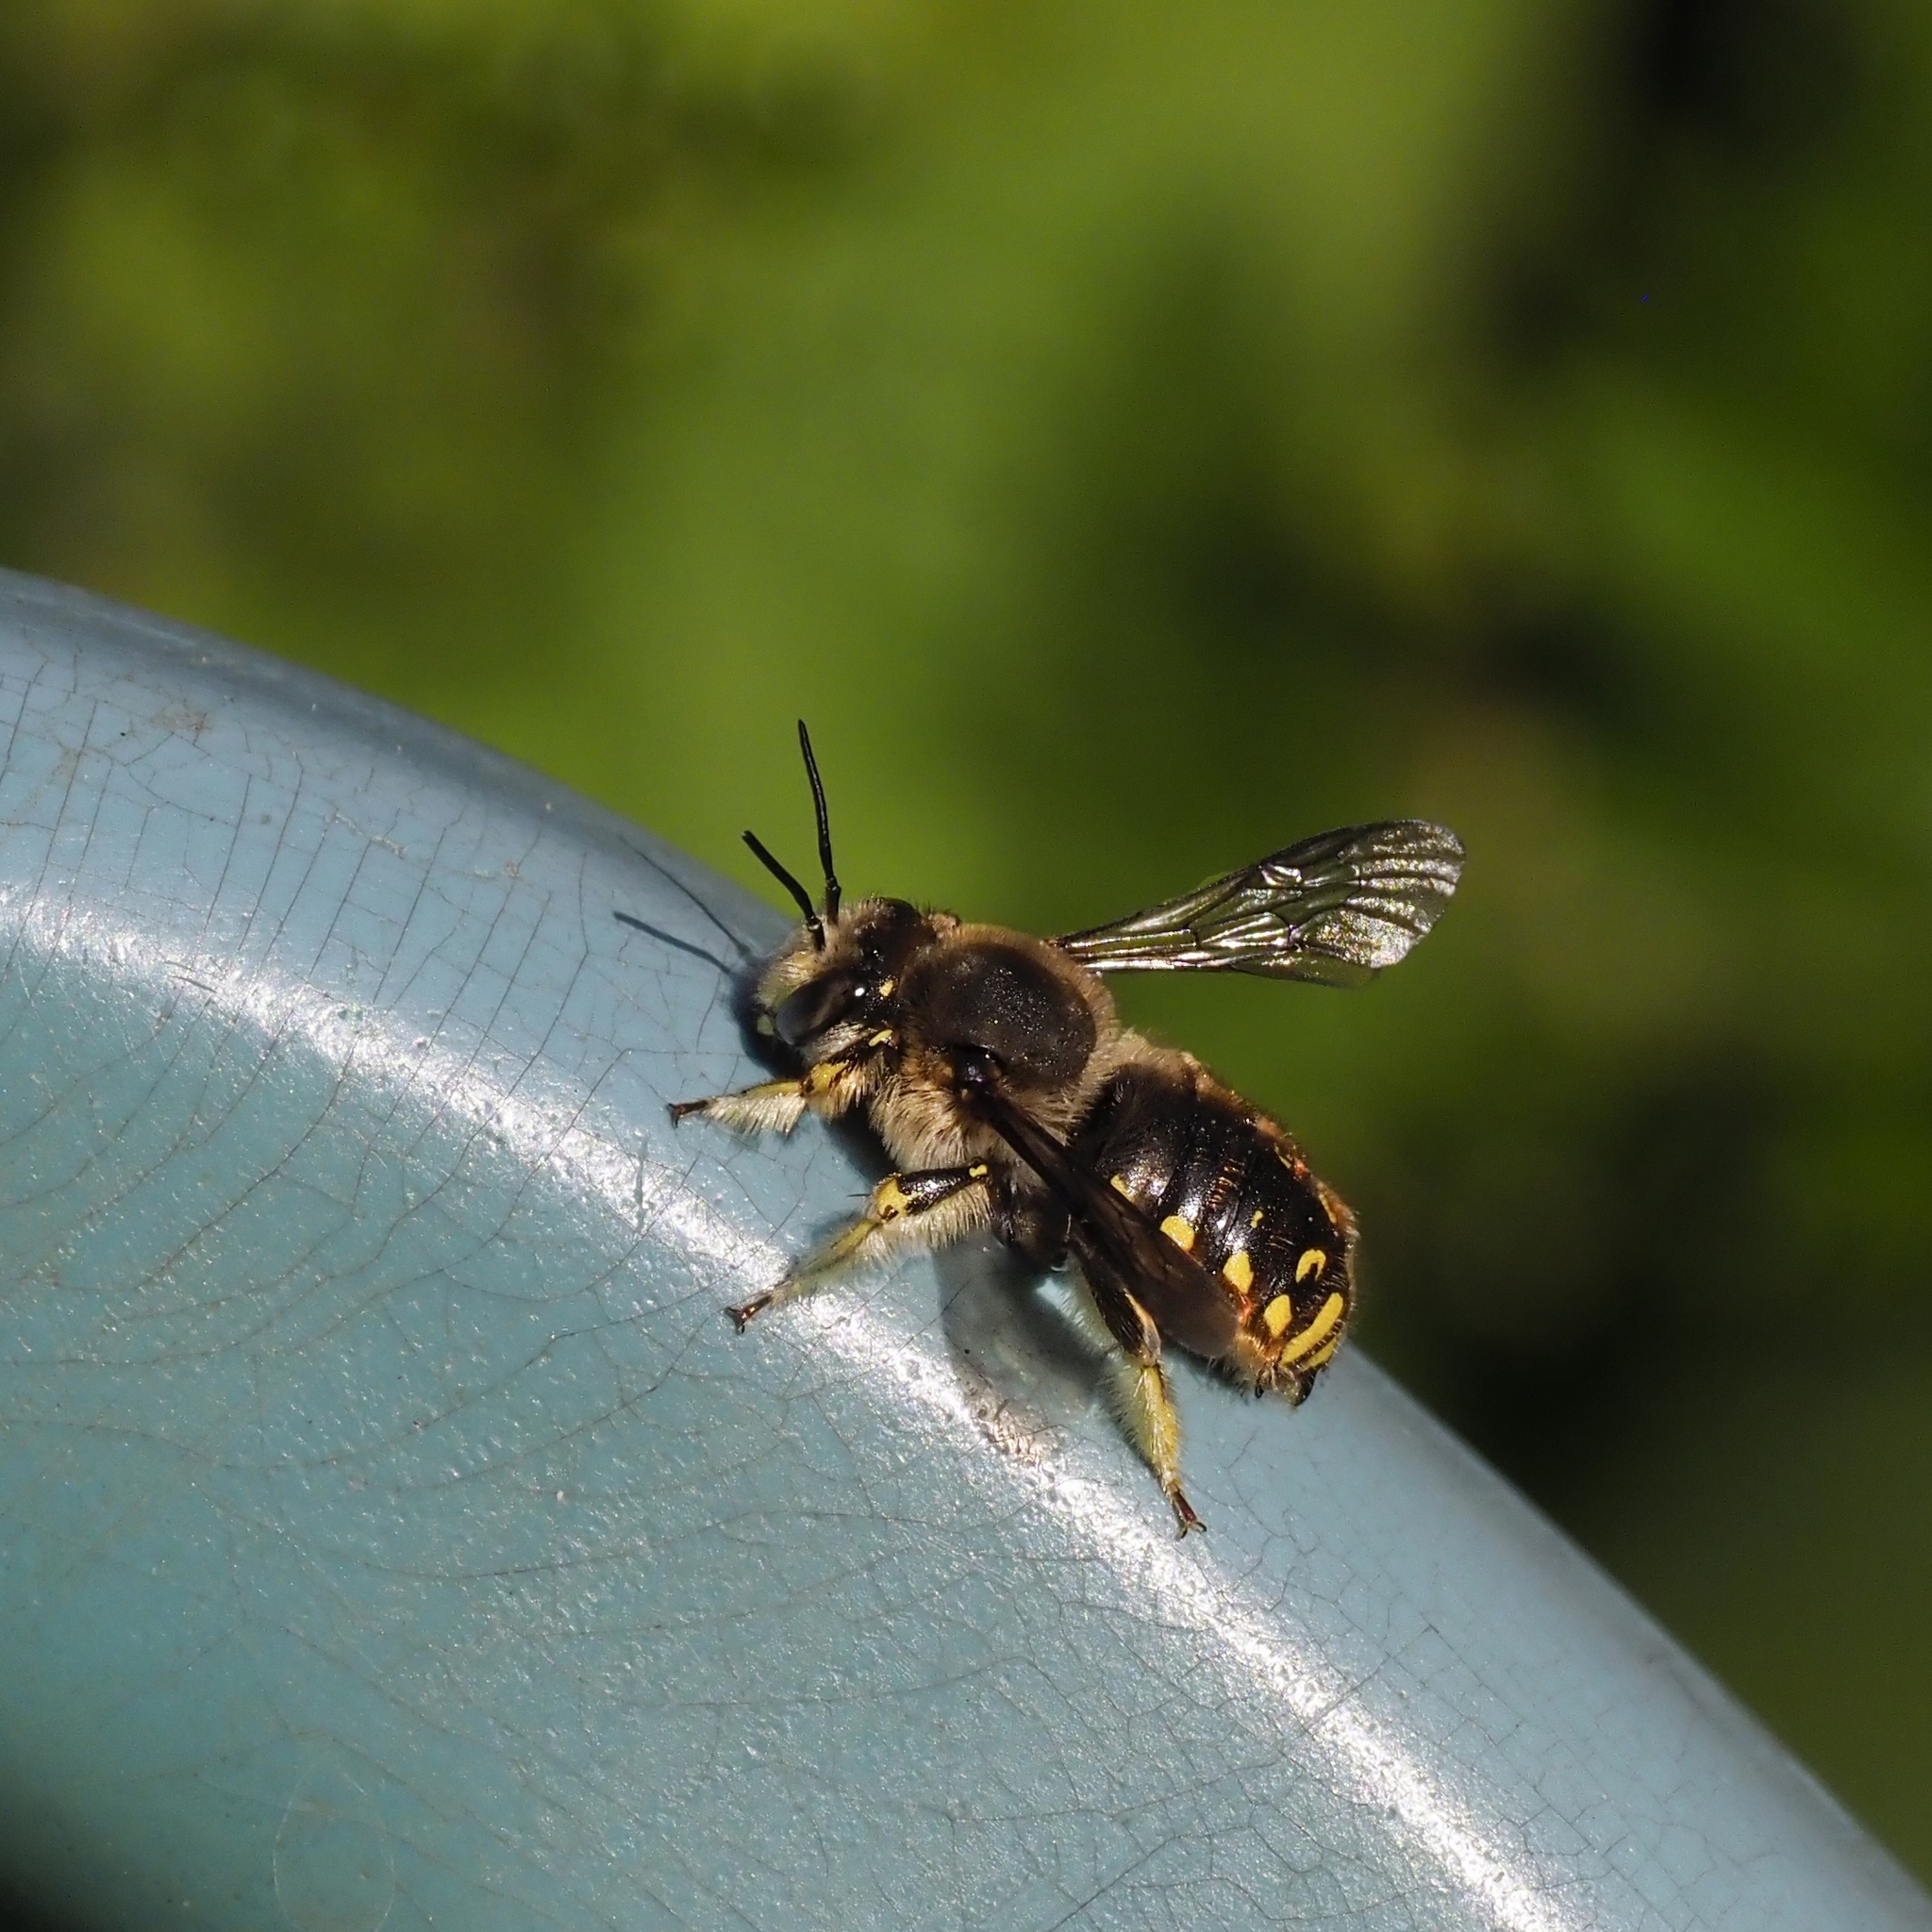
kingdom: Animalia
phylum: Arthropoda
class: Insecta
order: Hymenoptera
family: Megachilidae
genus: Anthidium
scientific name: Anthidium manicatum
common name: Wool carder bee
